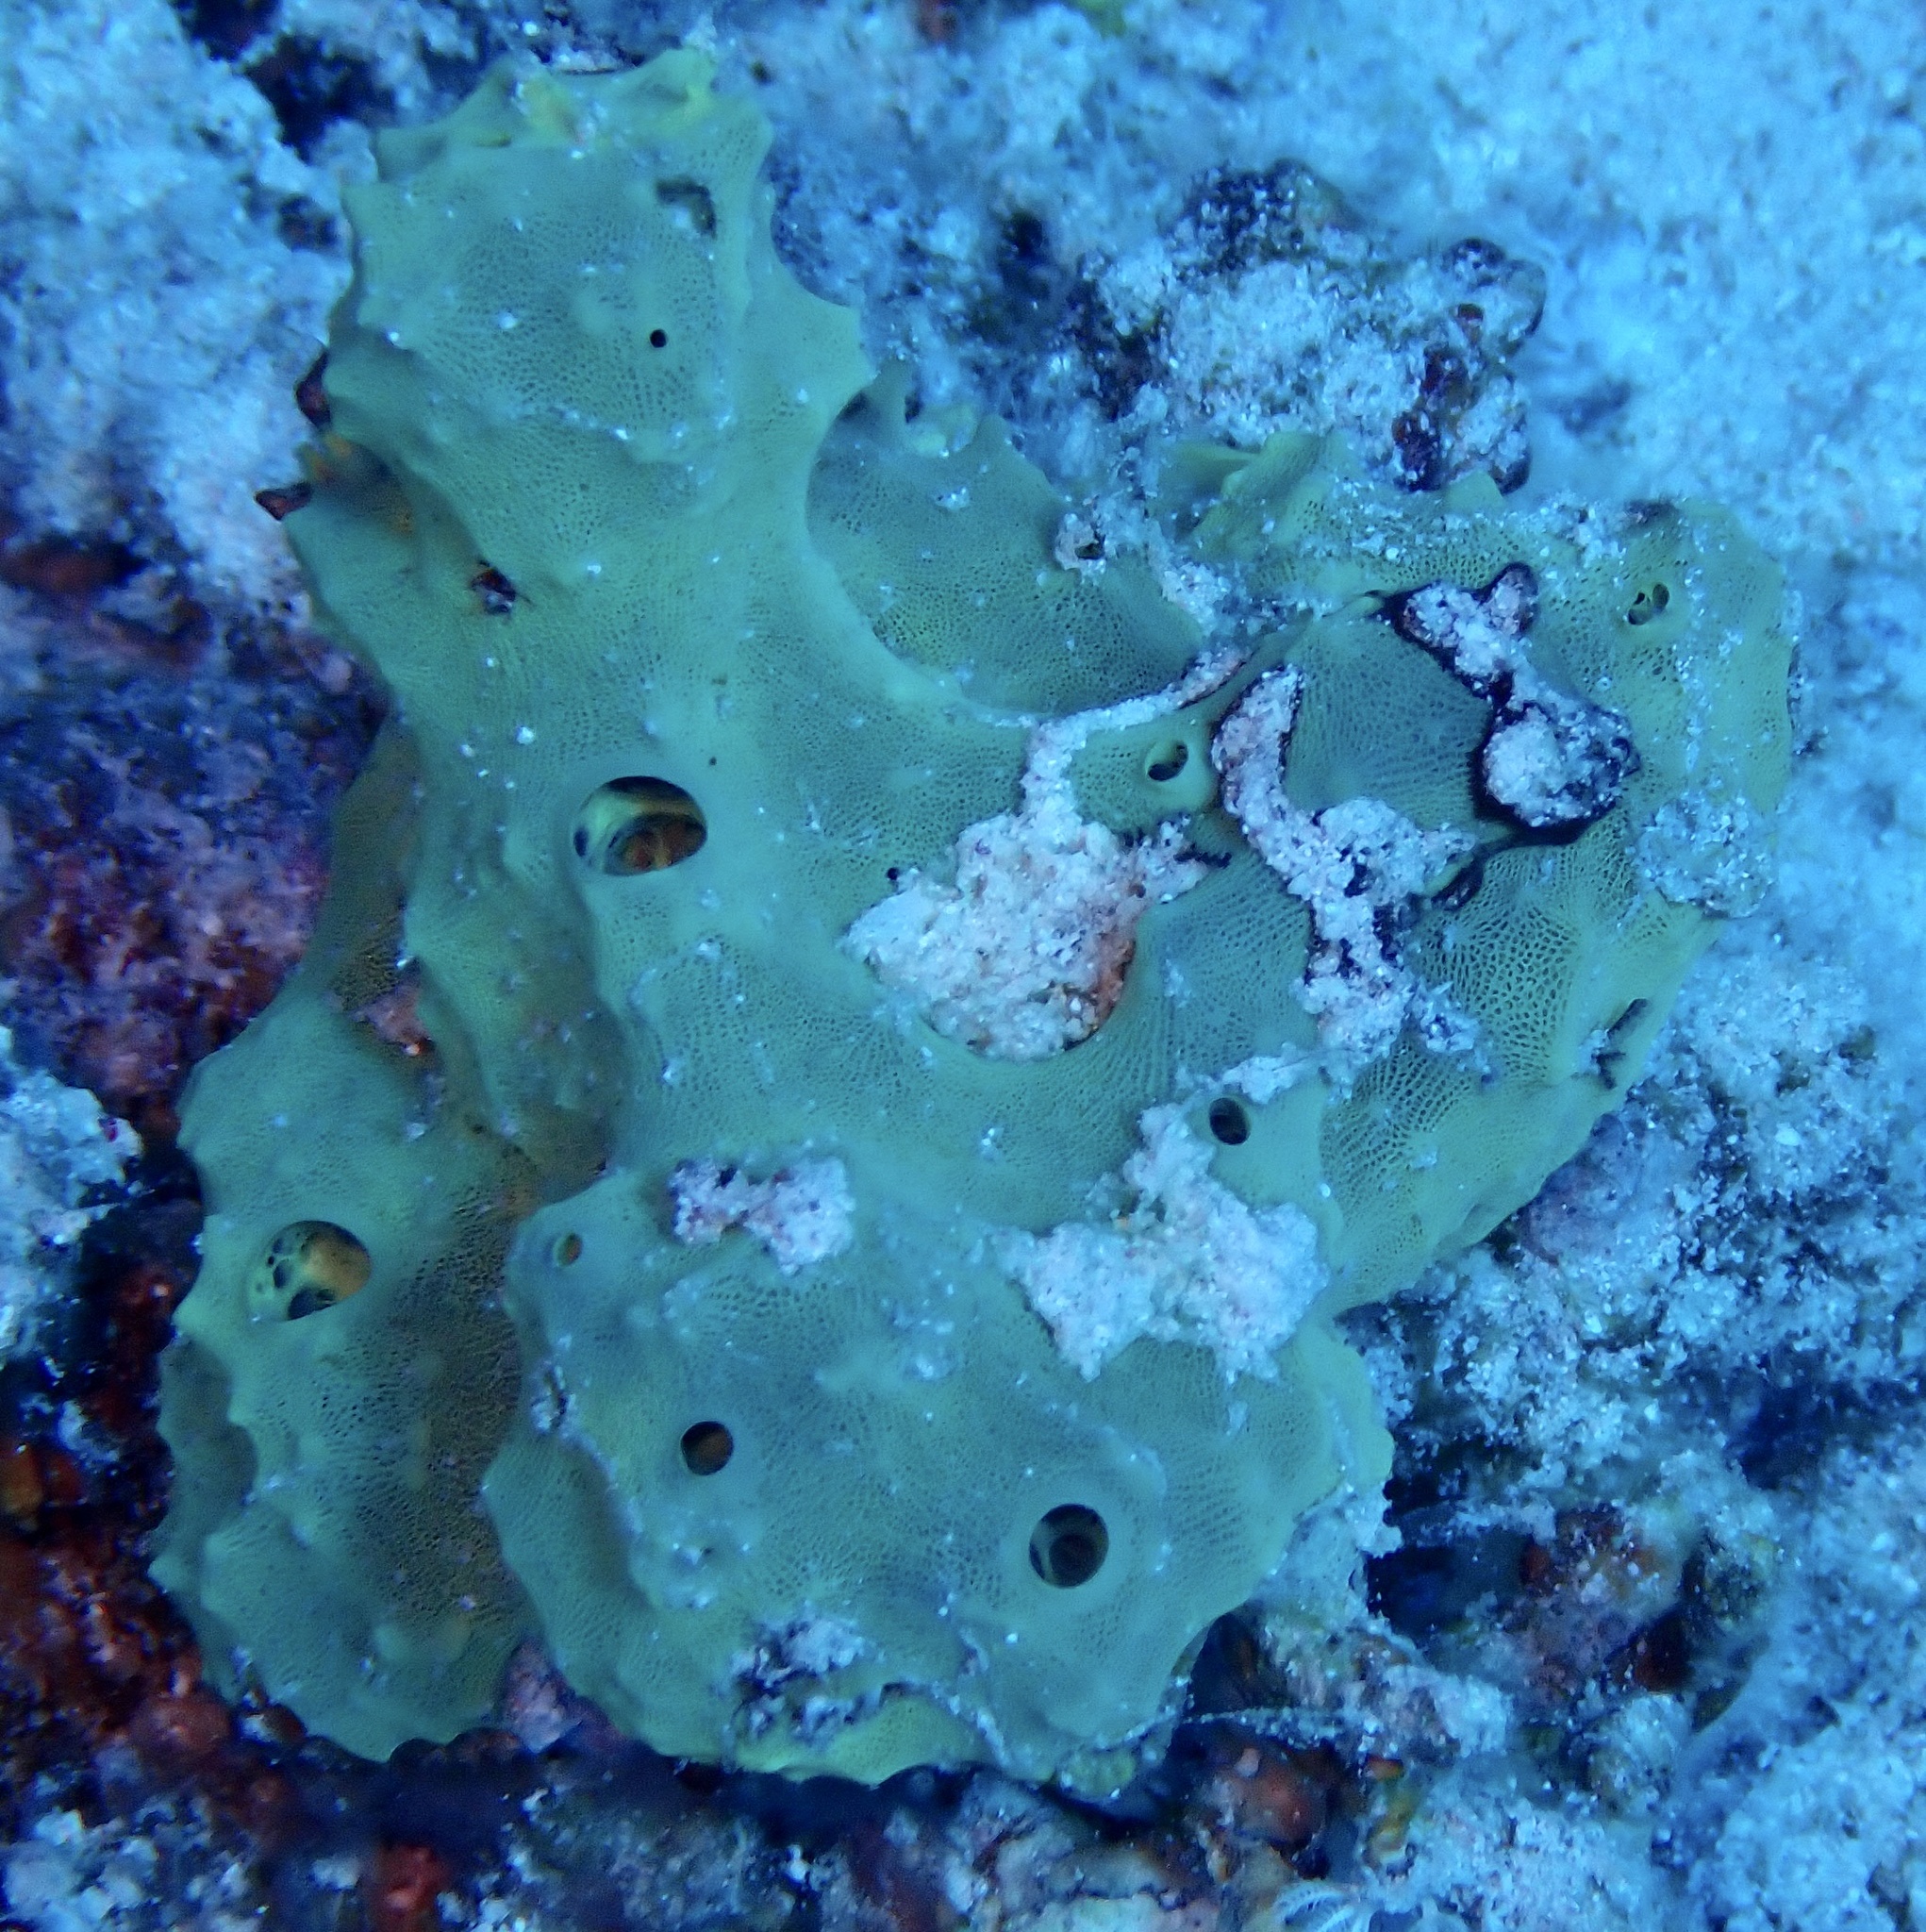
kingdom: Animalia
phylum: Porifera
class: Demospongiae
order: Verongiida
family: Aplysinellidae
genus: Suberea
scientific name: Suberea mollis
